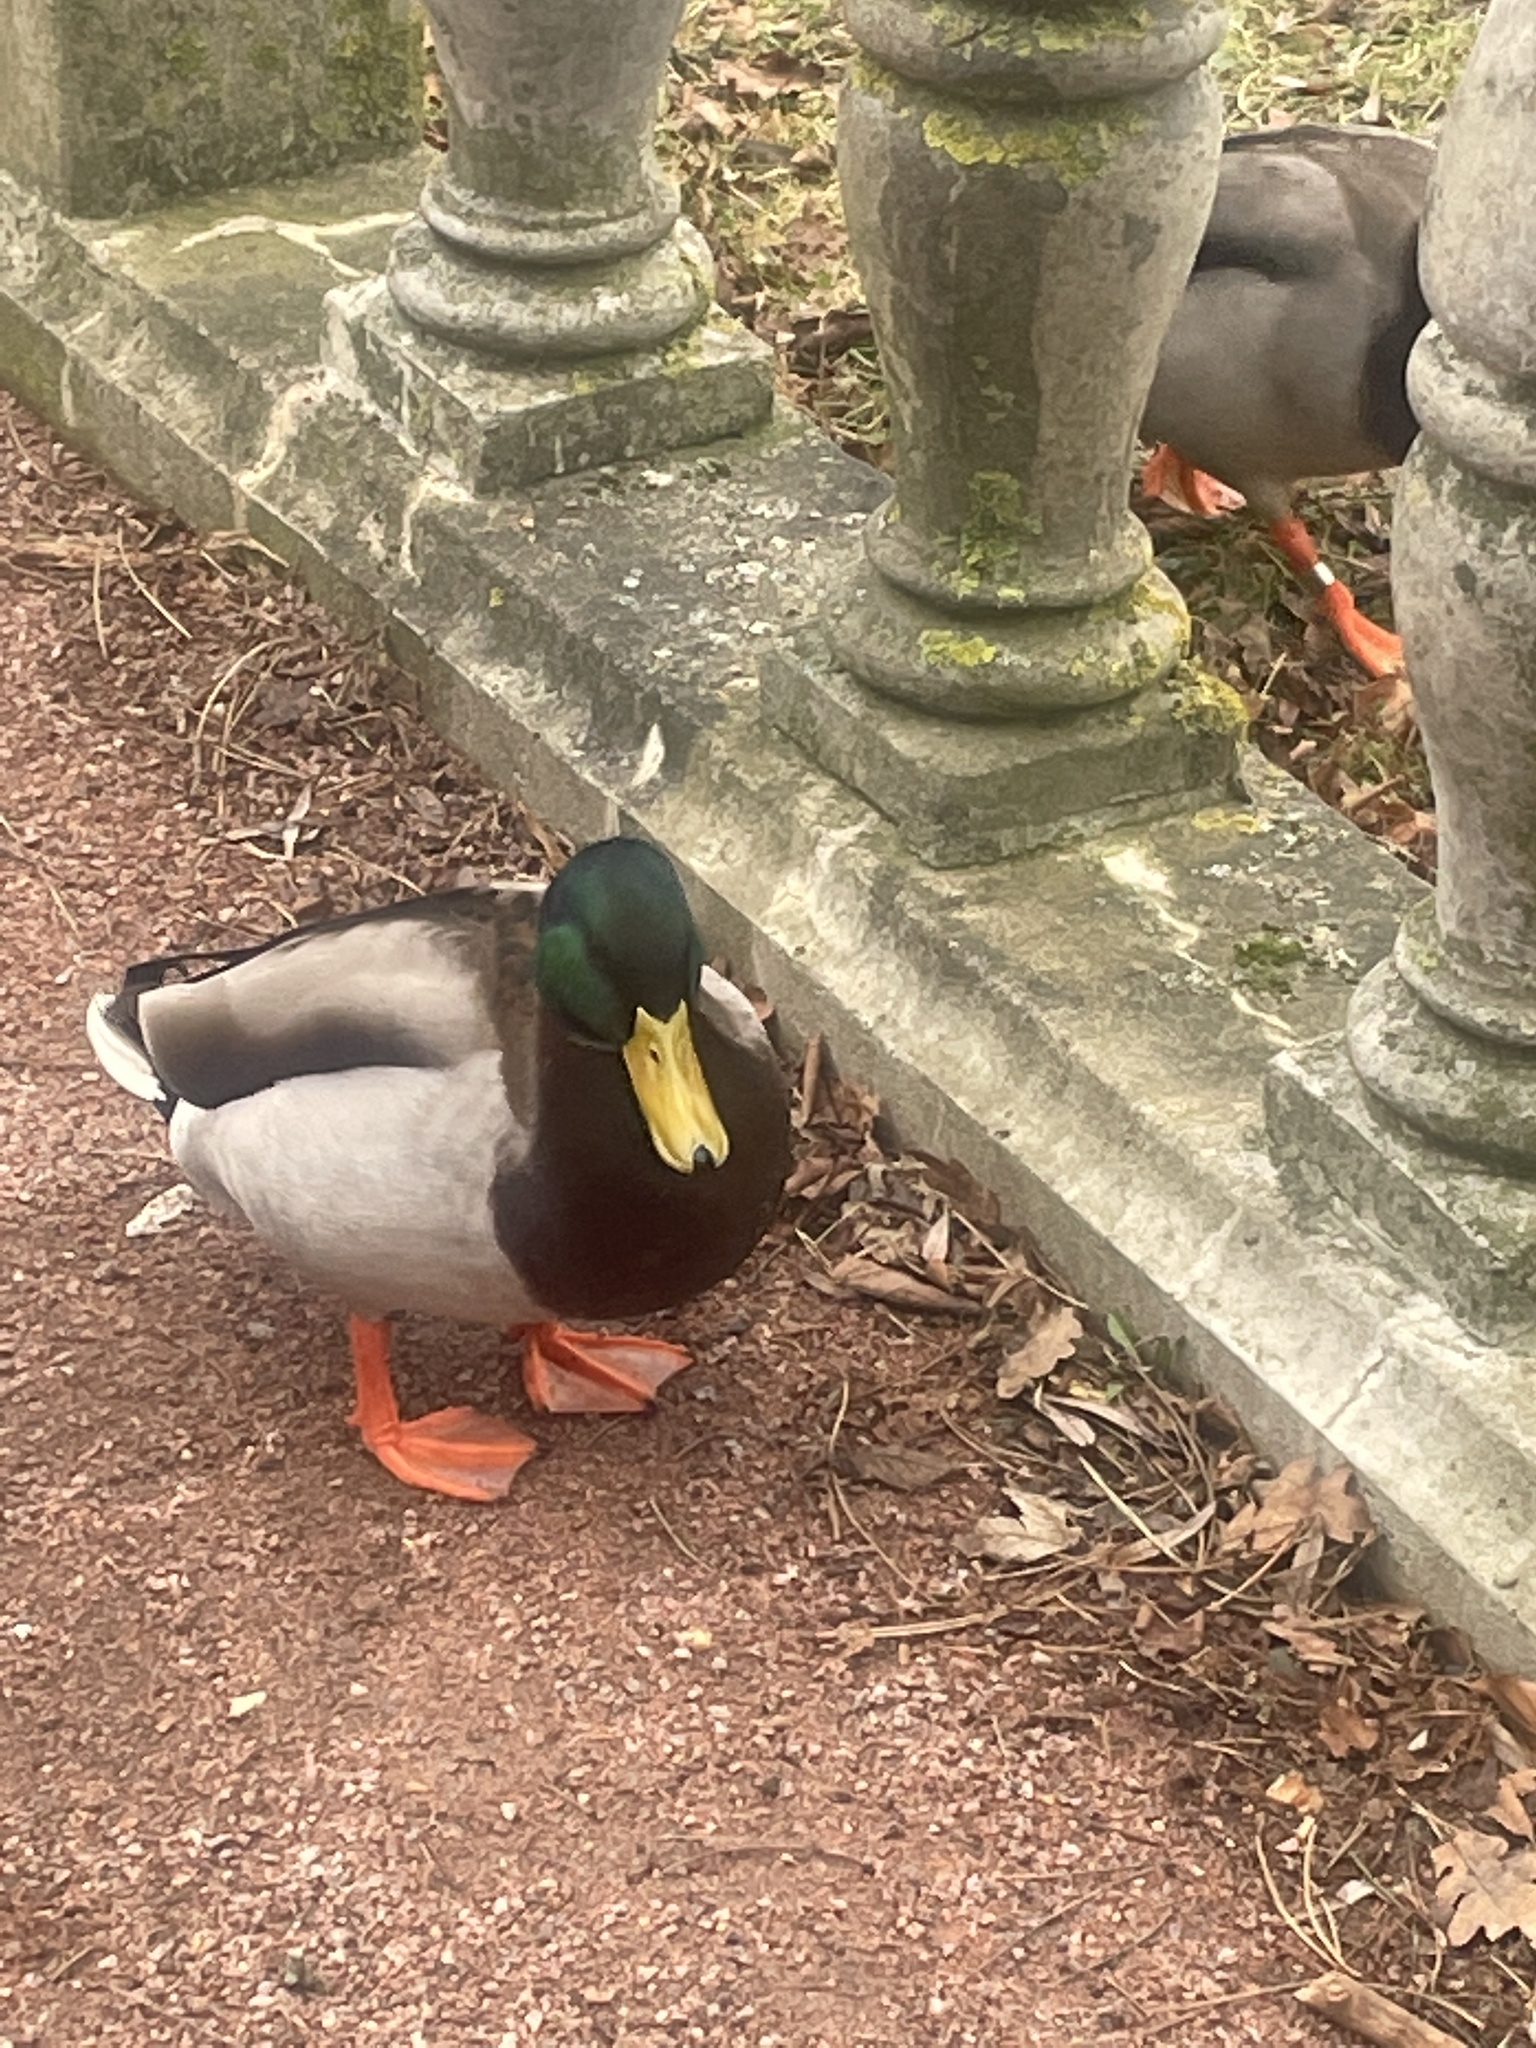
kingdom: Animalia
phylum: Chordata
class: Aves
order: Anseriformes
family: Anatidae
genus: Anas
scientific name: Anas platyrhynchos
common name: Mallard
